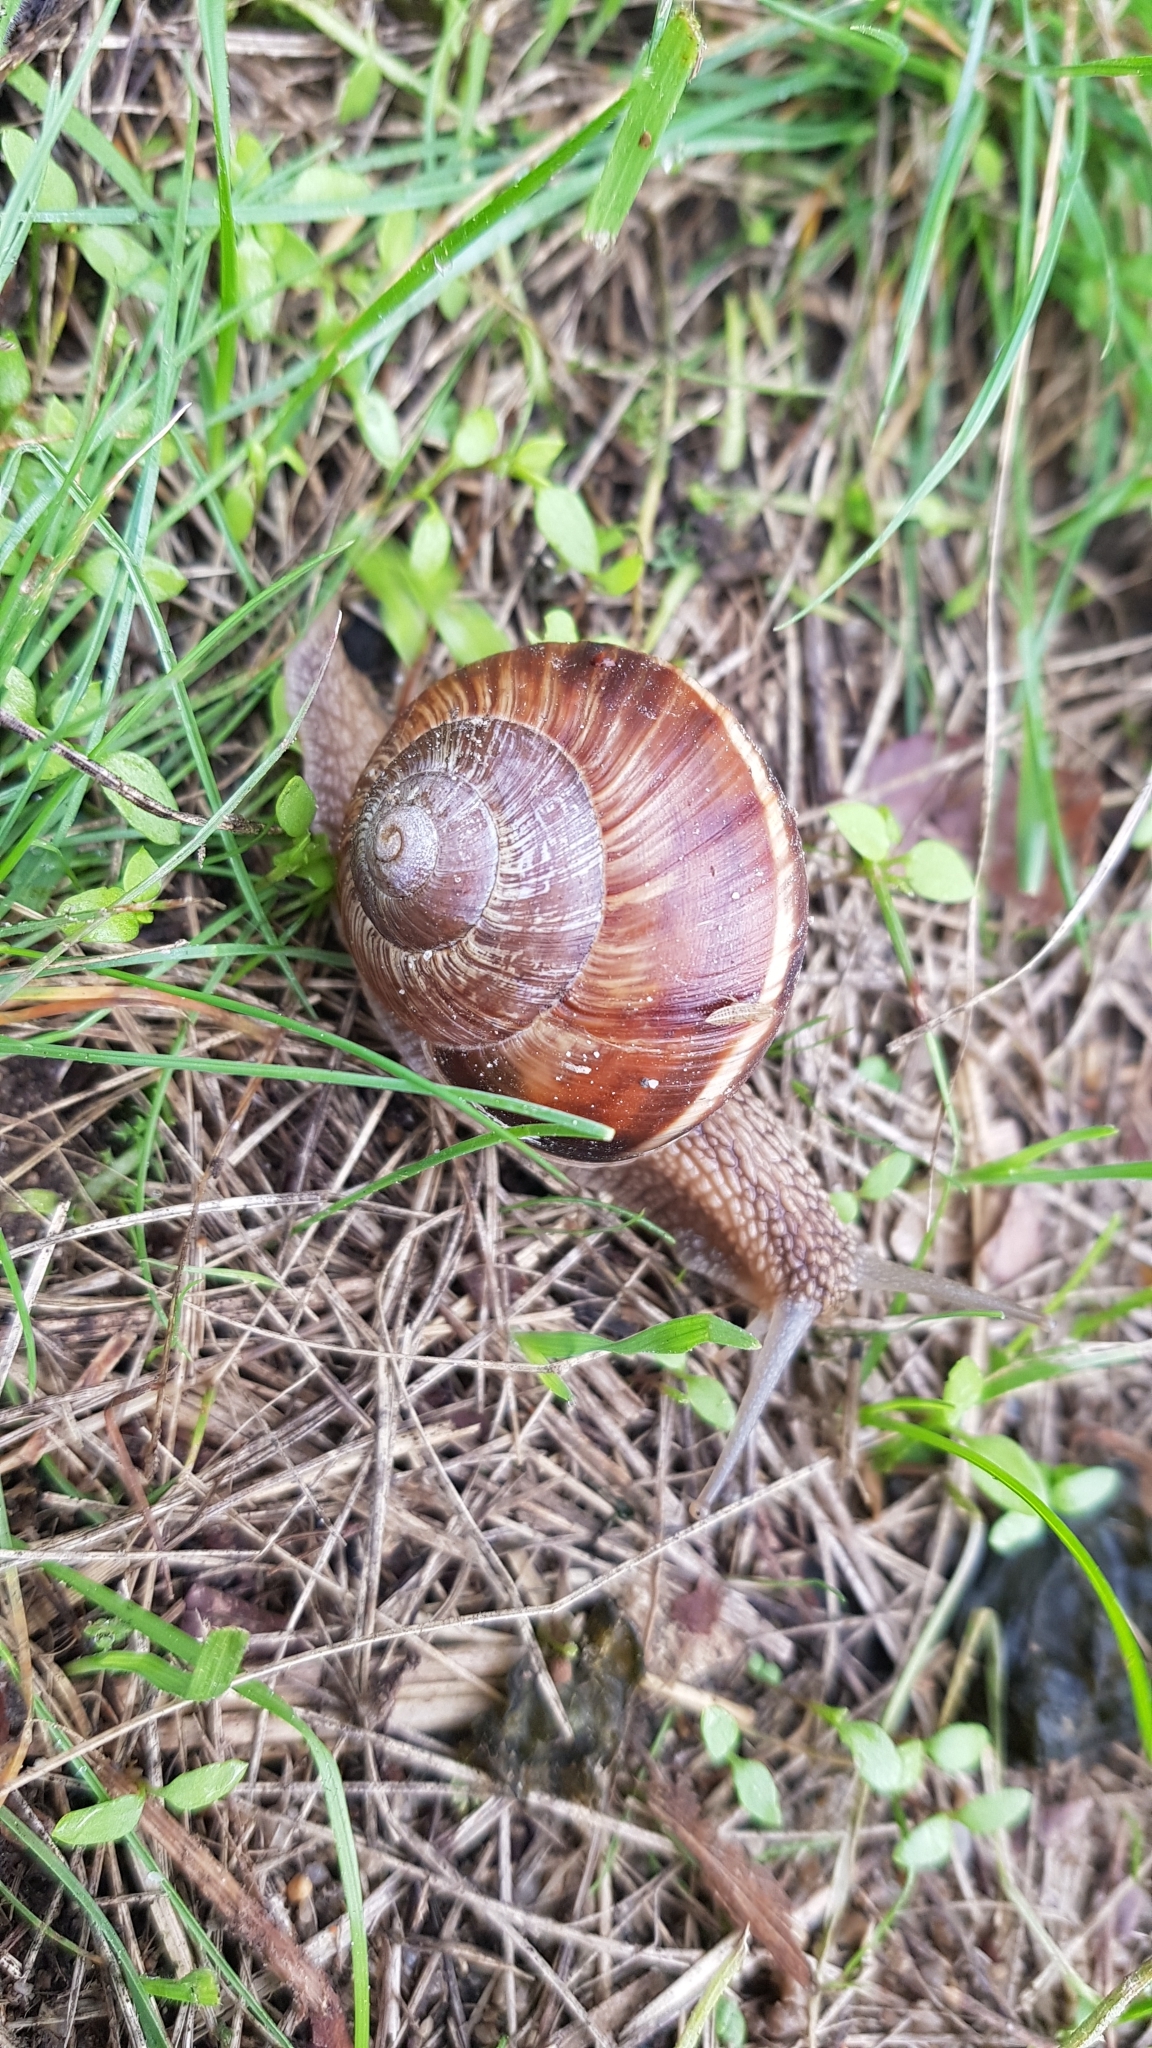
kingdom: Animalia
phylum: Mollusca
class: Gastropoda
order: Stylommatophora
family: Helicidae
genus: Helix
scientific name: Helix lucorum
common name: Turkish snail
